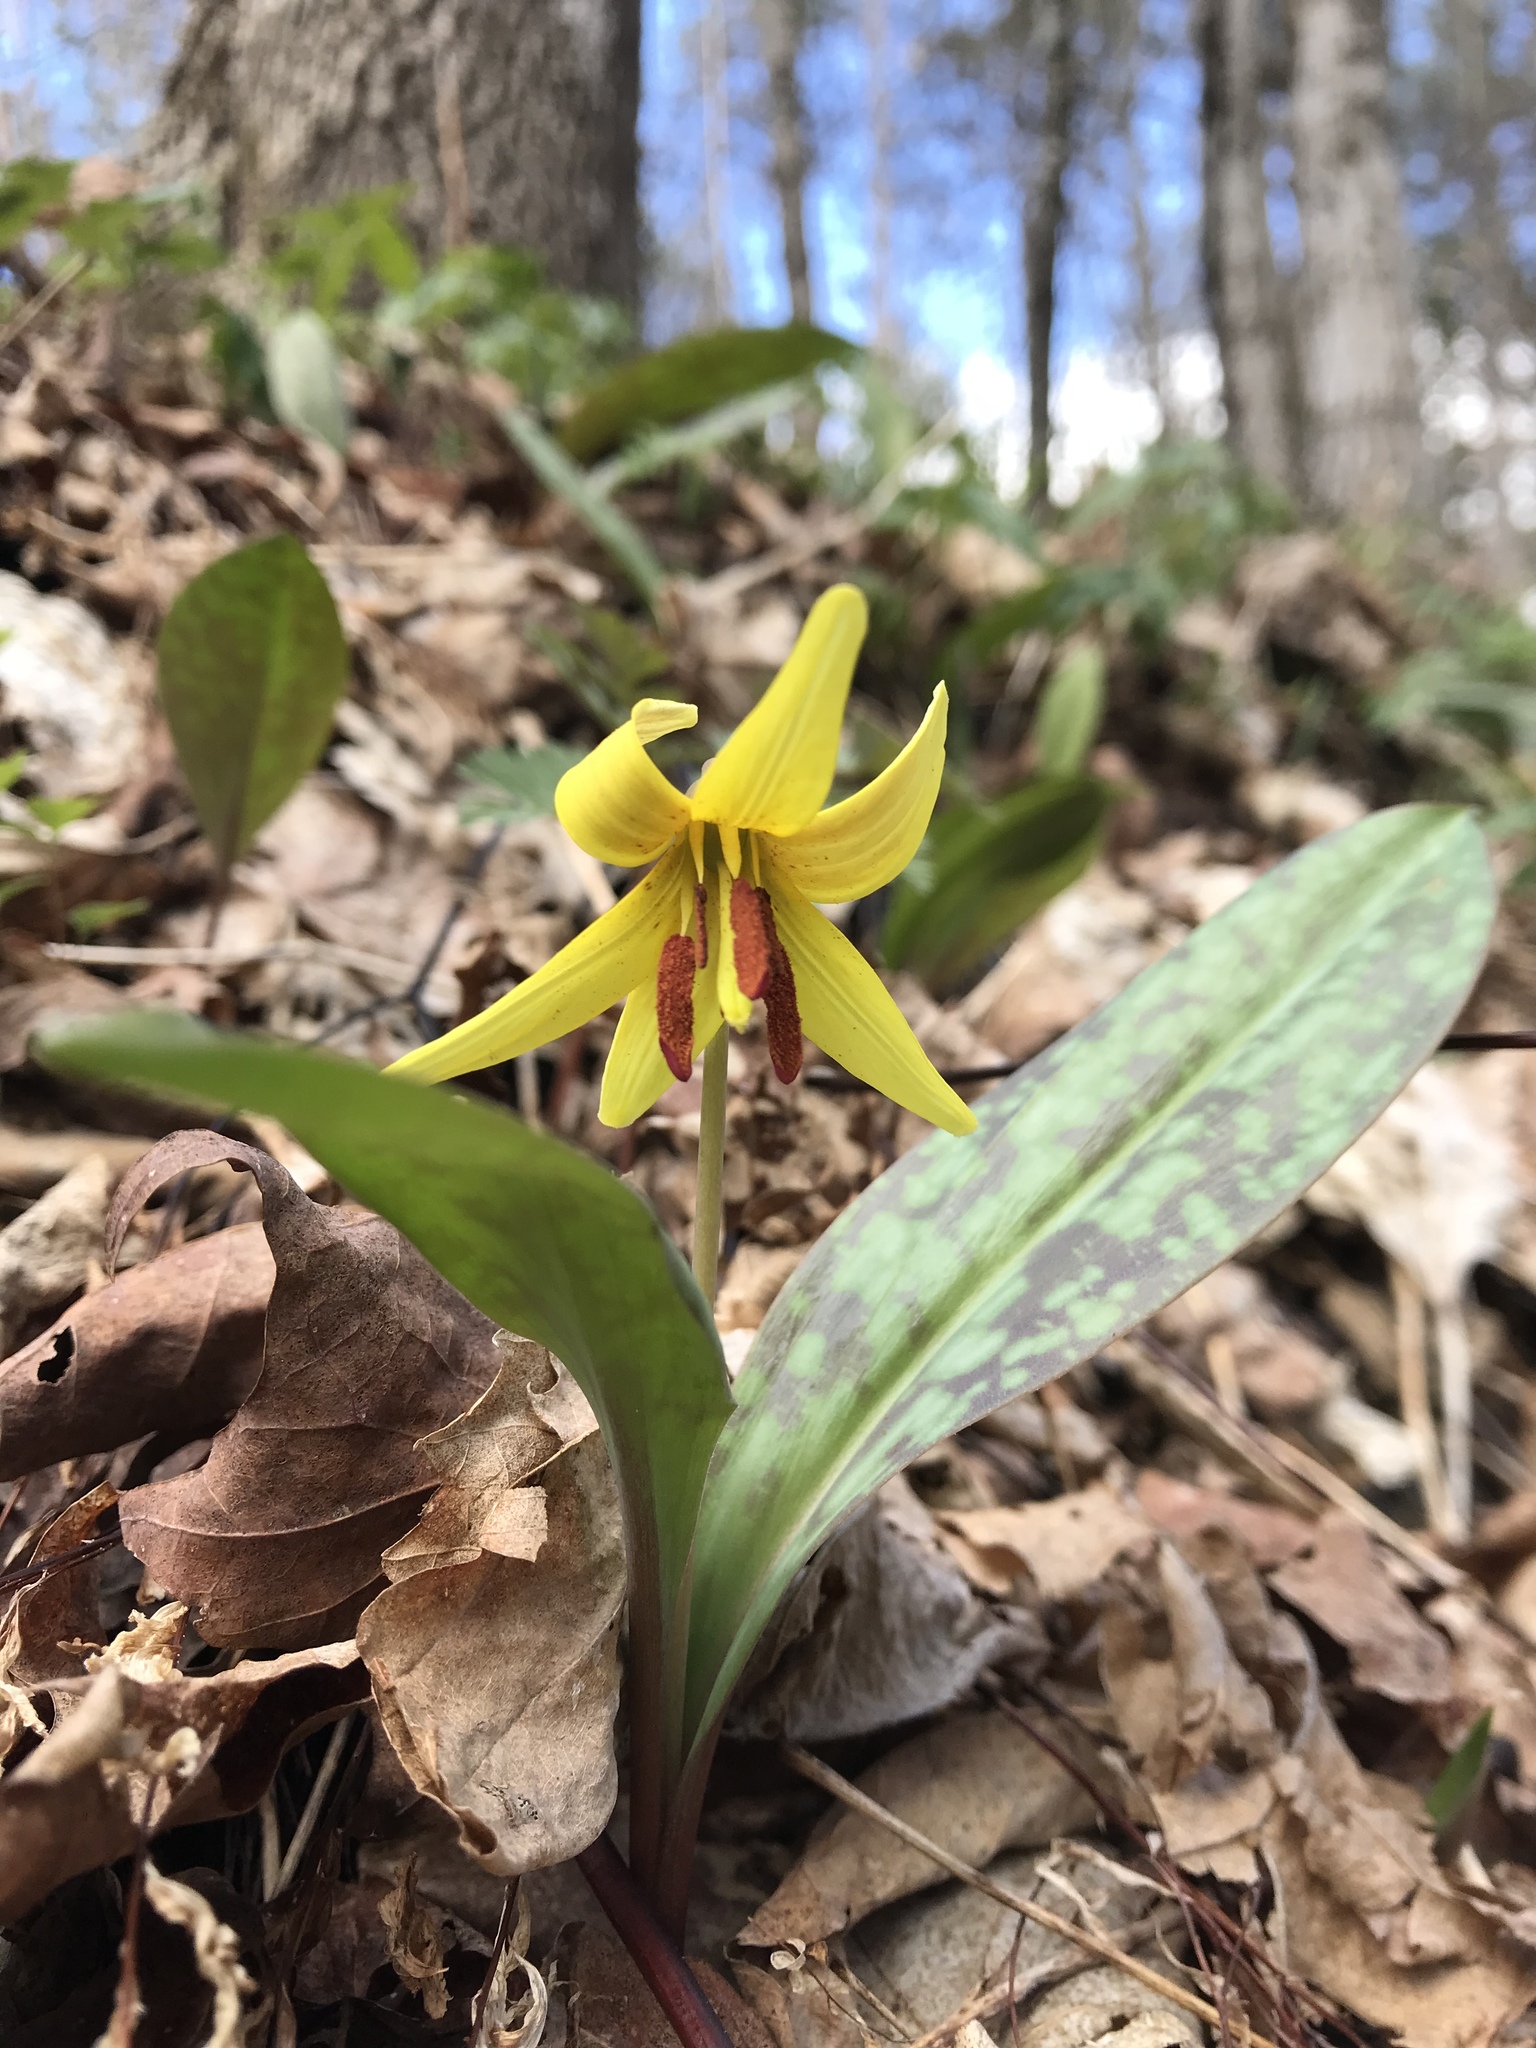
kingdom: Plantae
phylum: Tracheophyta
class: Liliopsida
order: Liliales
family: Liliaceae
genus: Erythronium
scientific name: Erythronium americanum
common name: Yellow adder's-tongue
